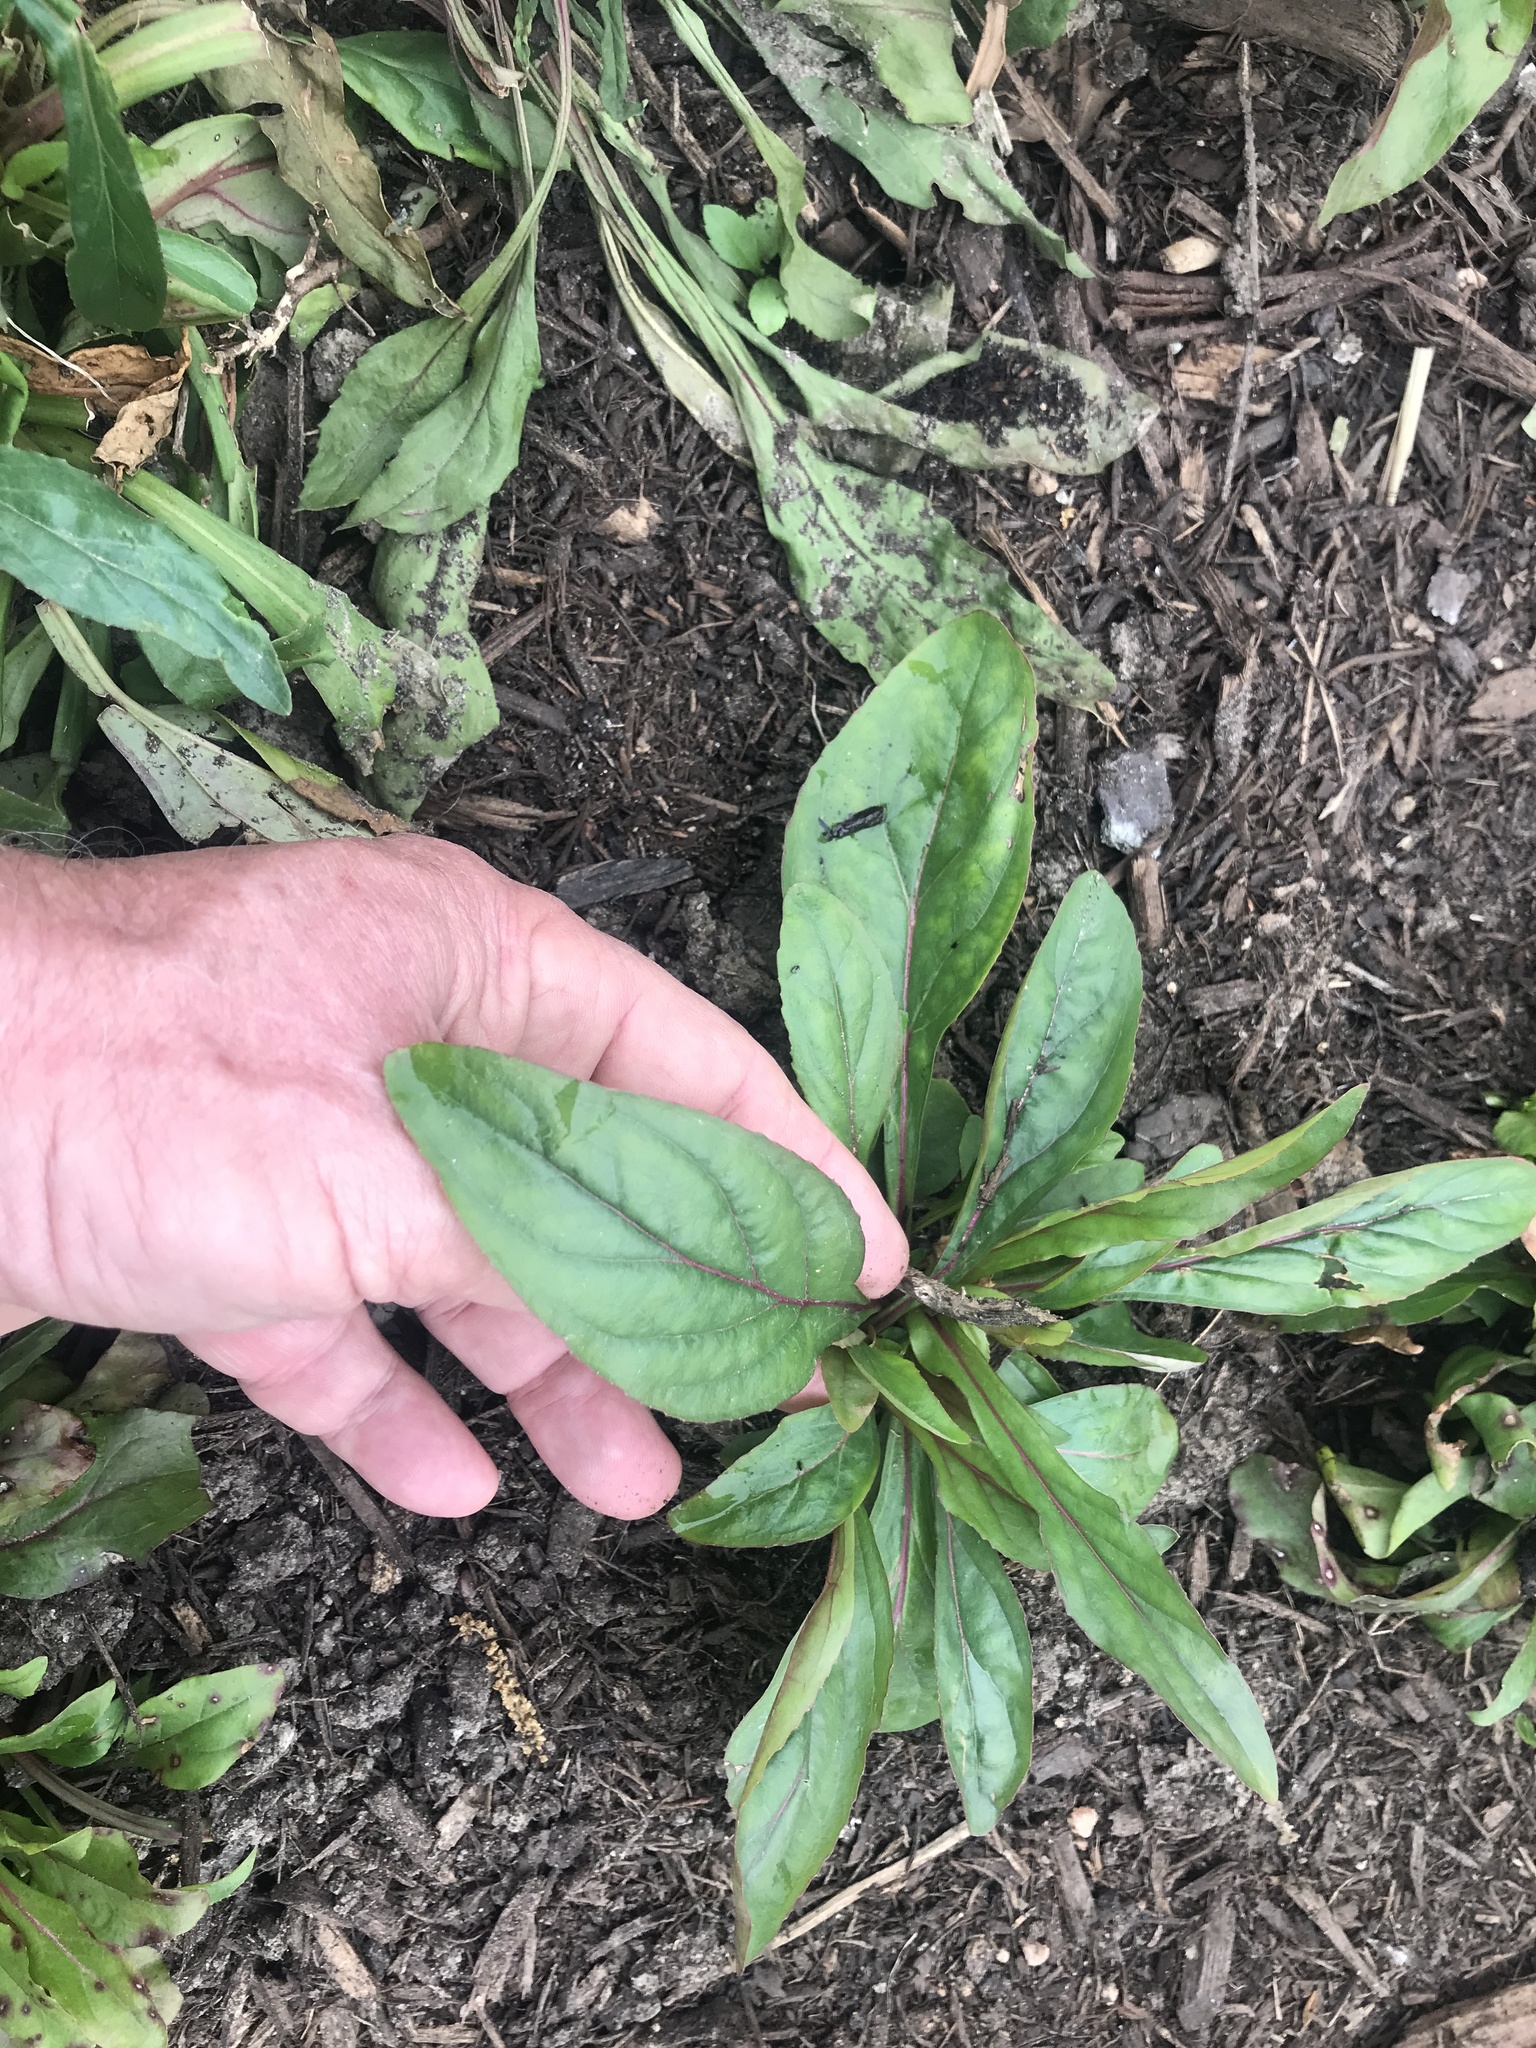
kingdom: Plantae
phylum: Tracheophyta
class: Magnoliopsida
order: Lamiales
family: Plantaginaceae
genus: Penstemon
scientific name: Penstemon tenuis
